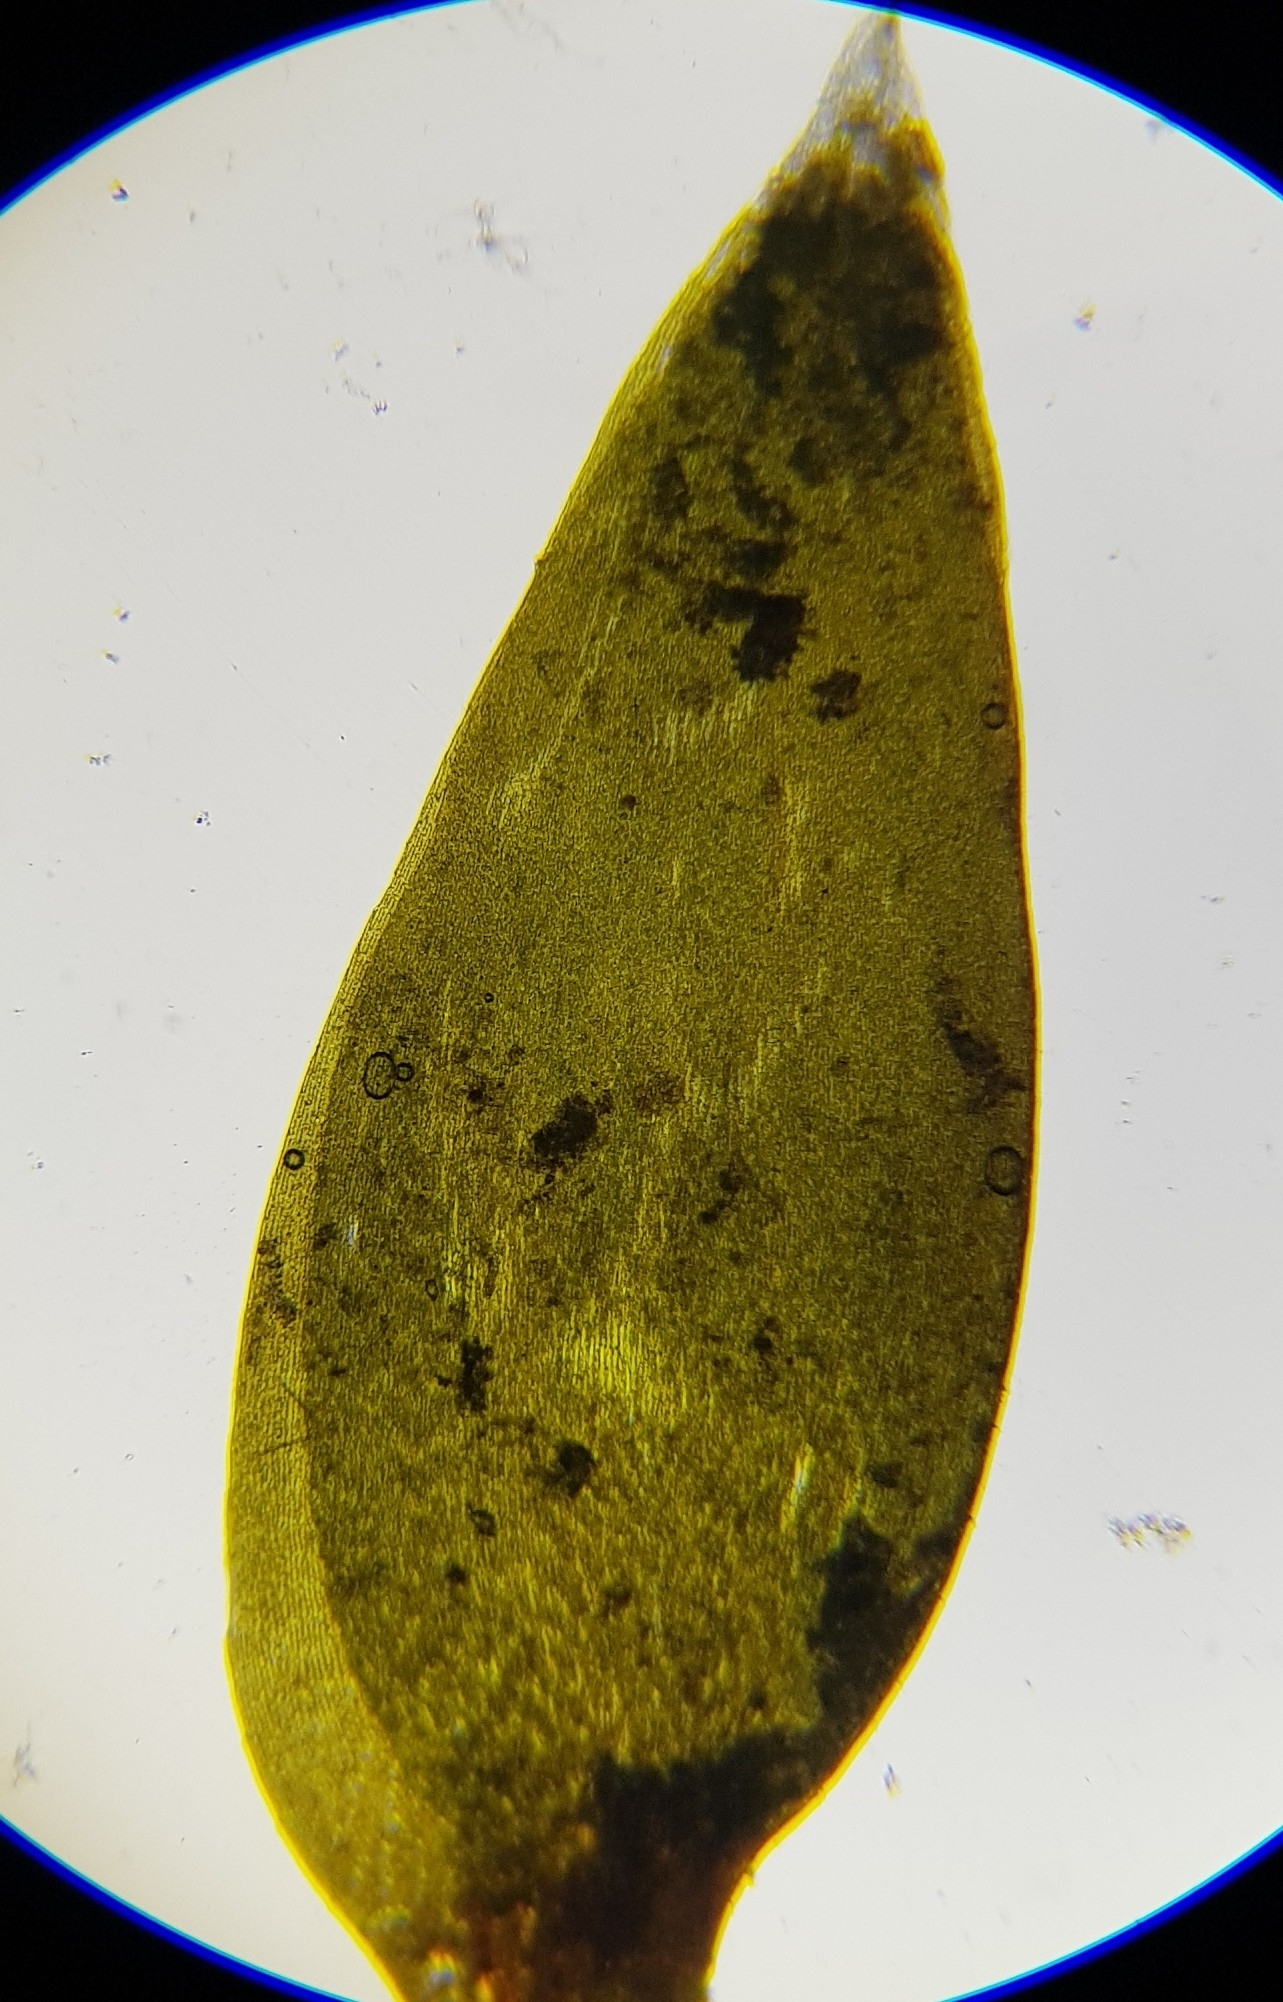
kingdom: Plantae
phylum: Bryophyta
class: Bryopsida
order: Hypnales
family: Fontinalaceae
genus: Fontinalis
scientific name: Fontinalis antipyretica
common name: Greater water-moss
